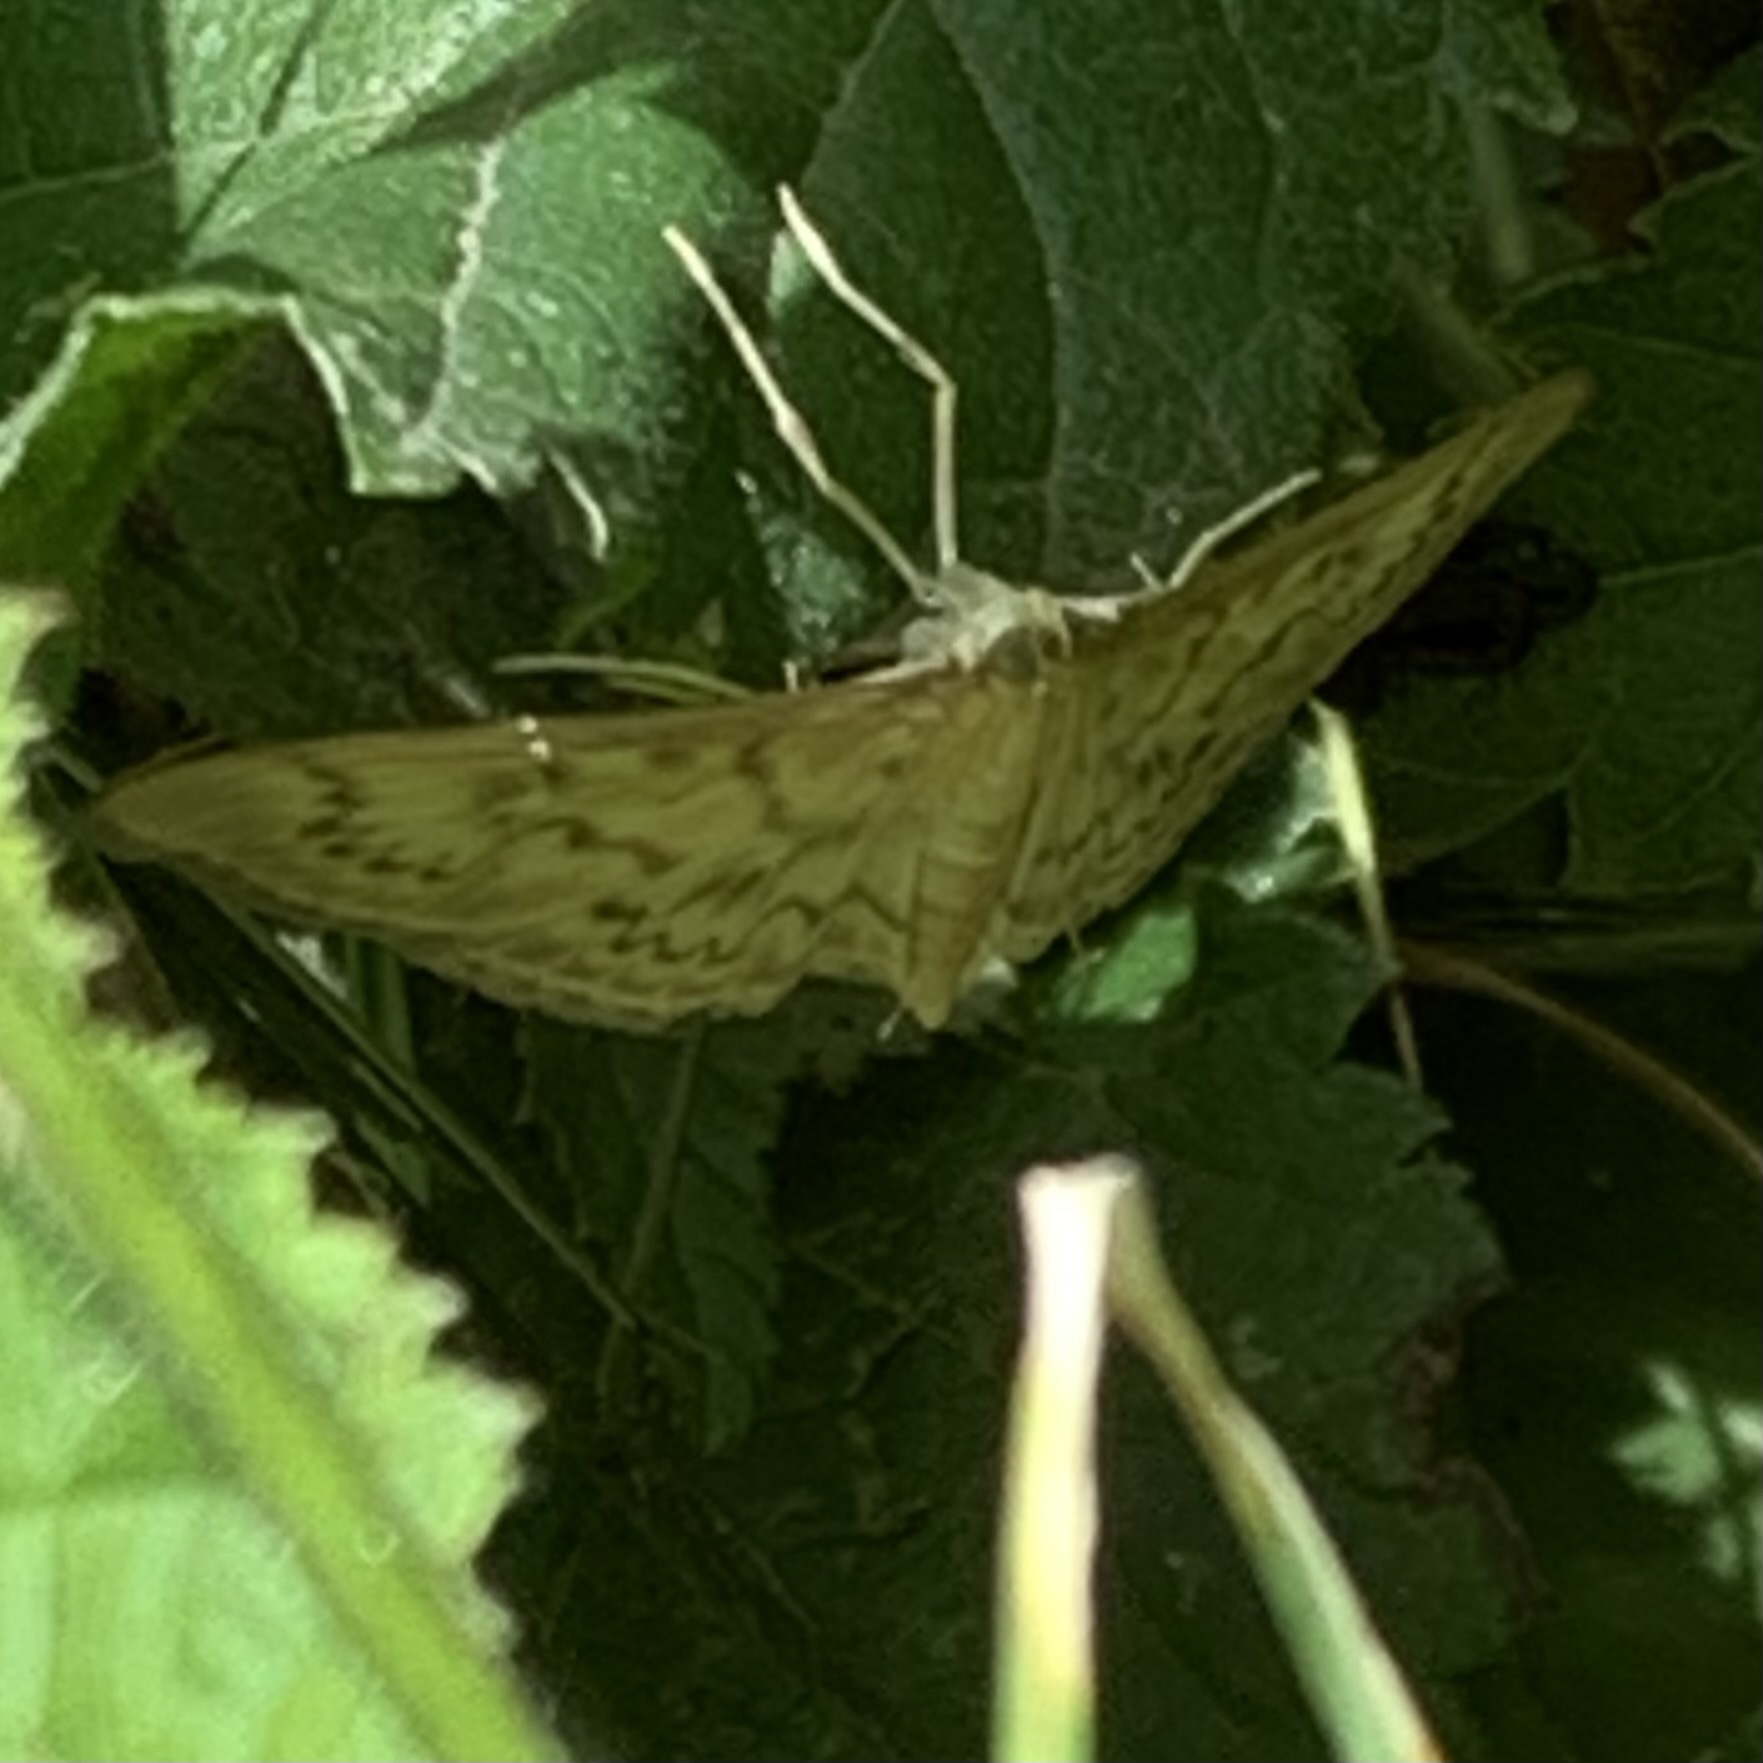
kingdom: Animalia
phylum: Arthropoda
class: Insecta
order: Lepidoptera
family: Crambidae
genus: Patania
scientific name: Patania ruralis
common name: Mother of pearl
